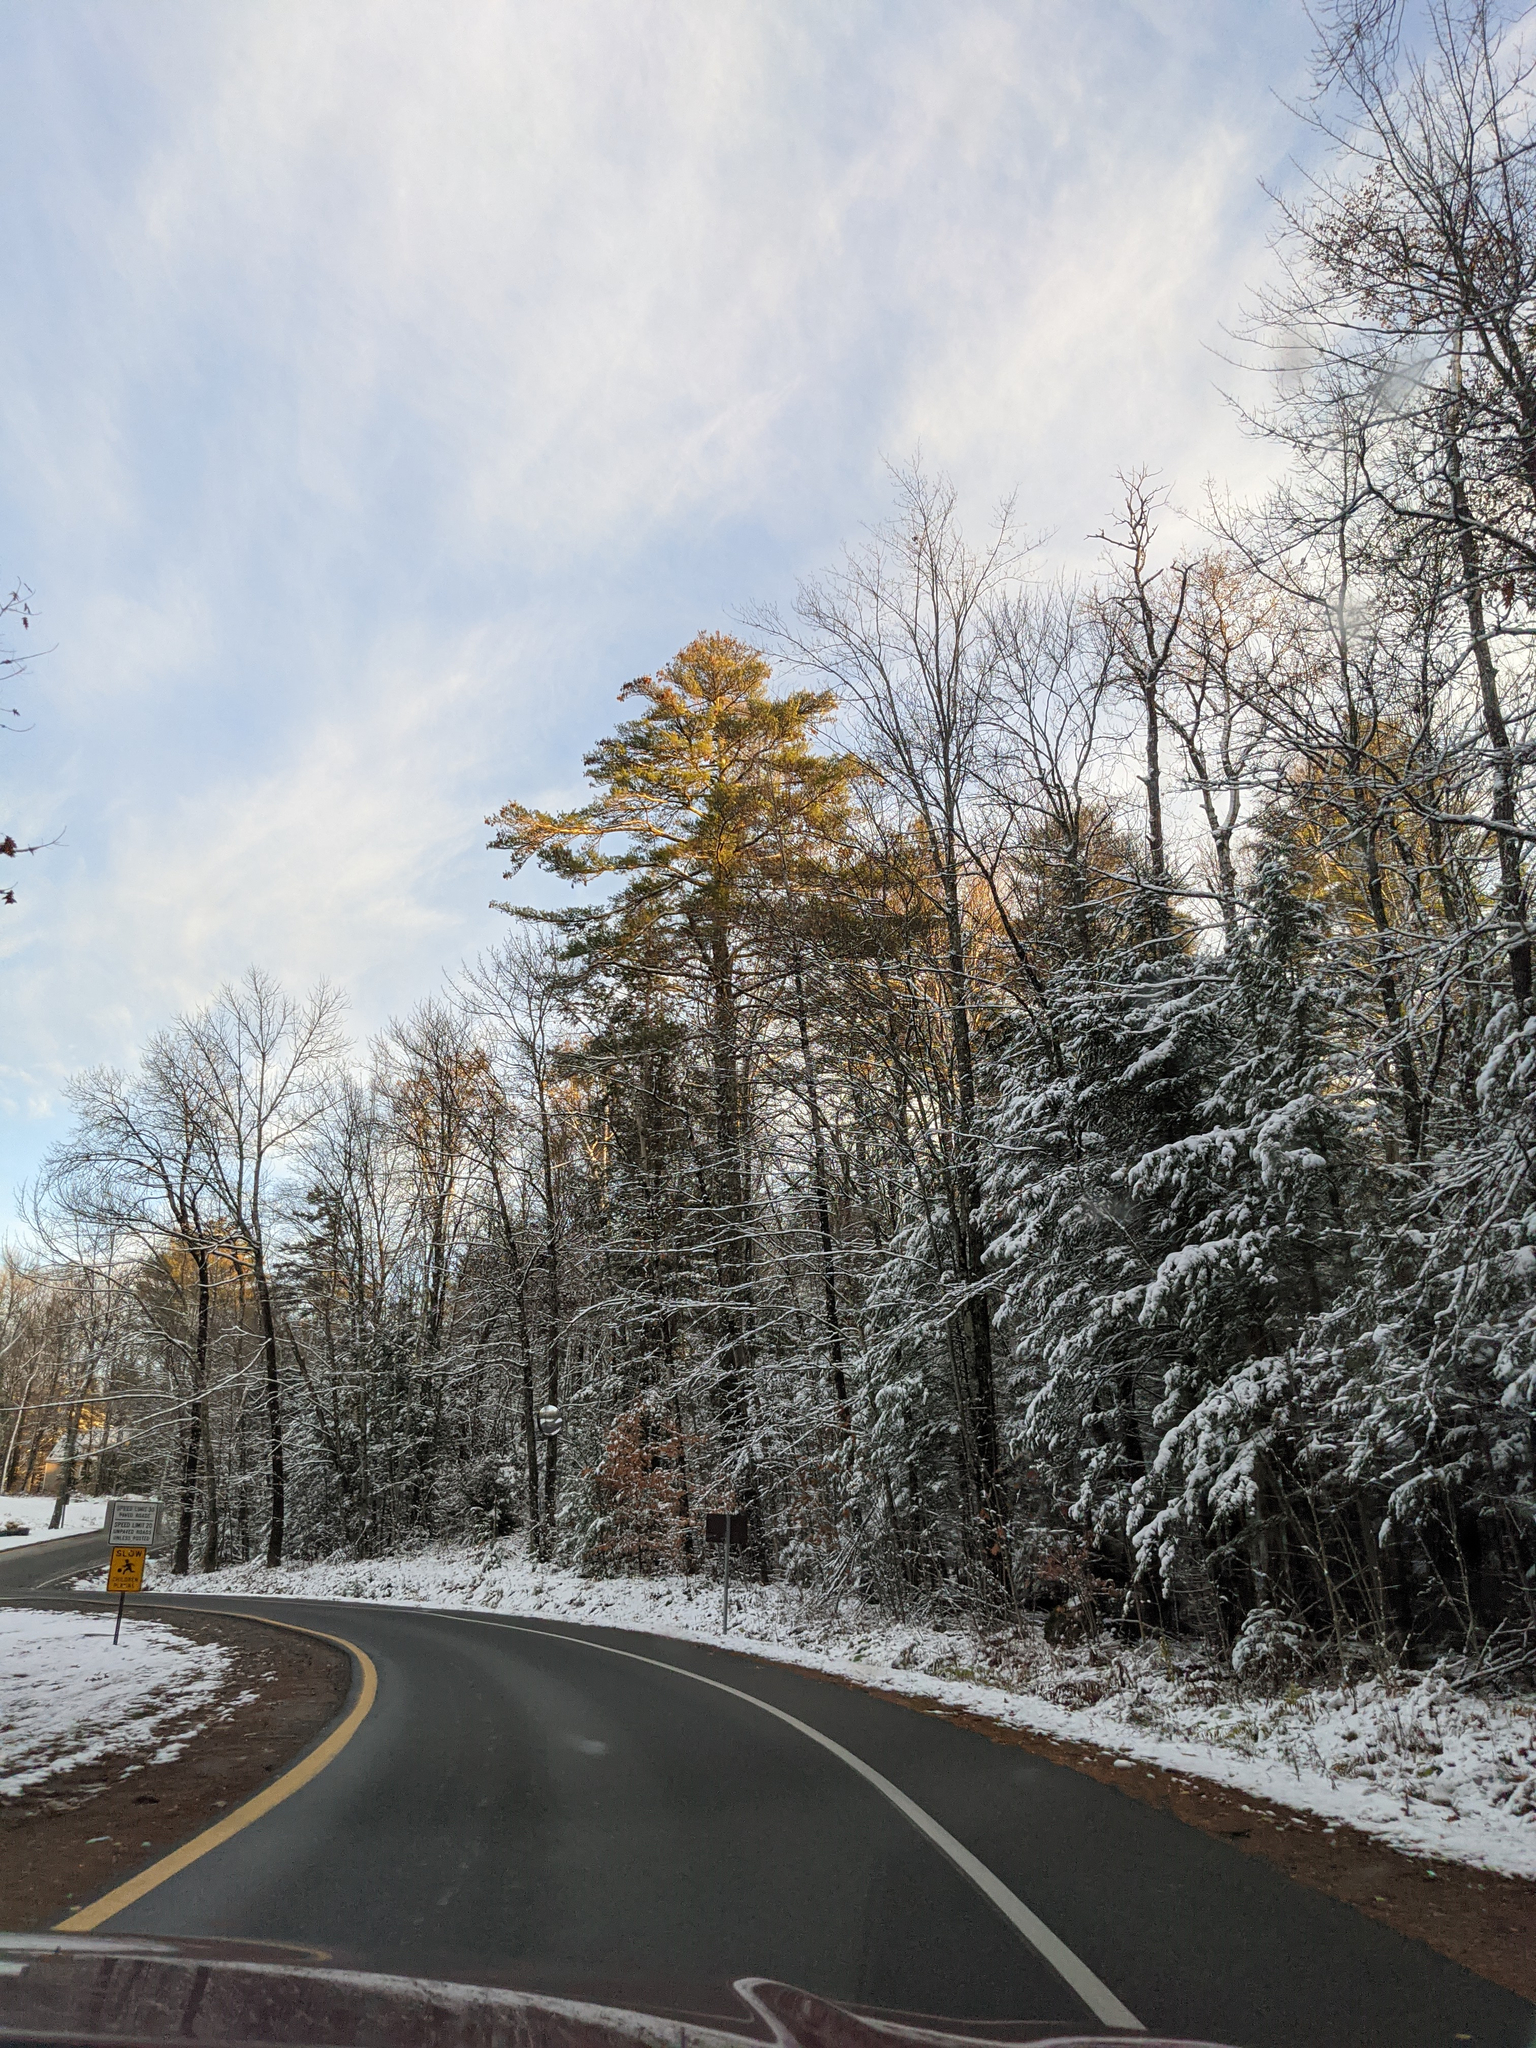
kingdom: Plantae
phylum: Tracheophyta
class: Pinopsida
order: Pinales
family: Pinaceae
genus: Pinus
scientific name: Pinus strobus
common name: Weymouth pine
